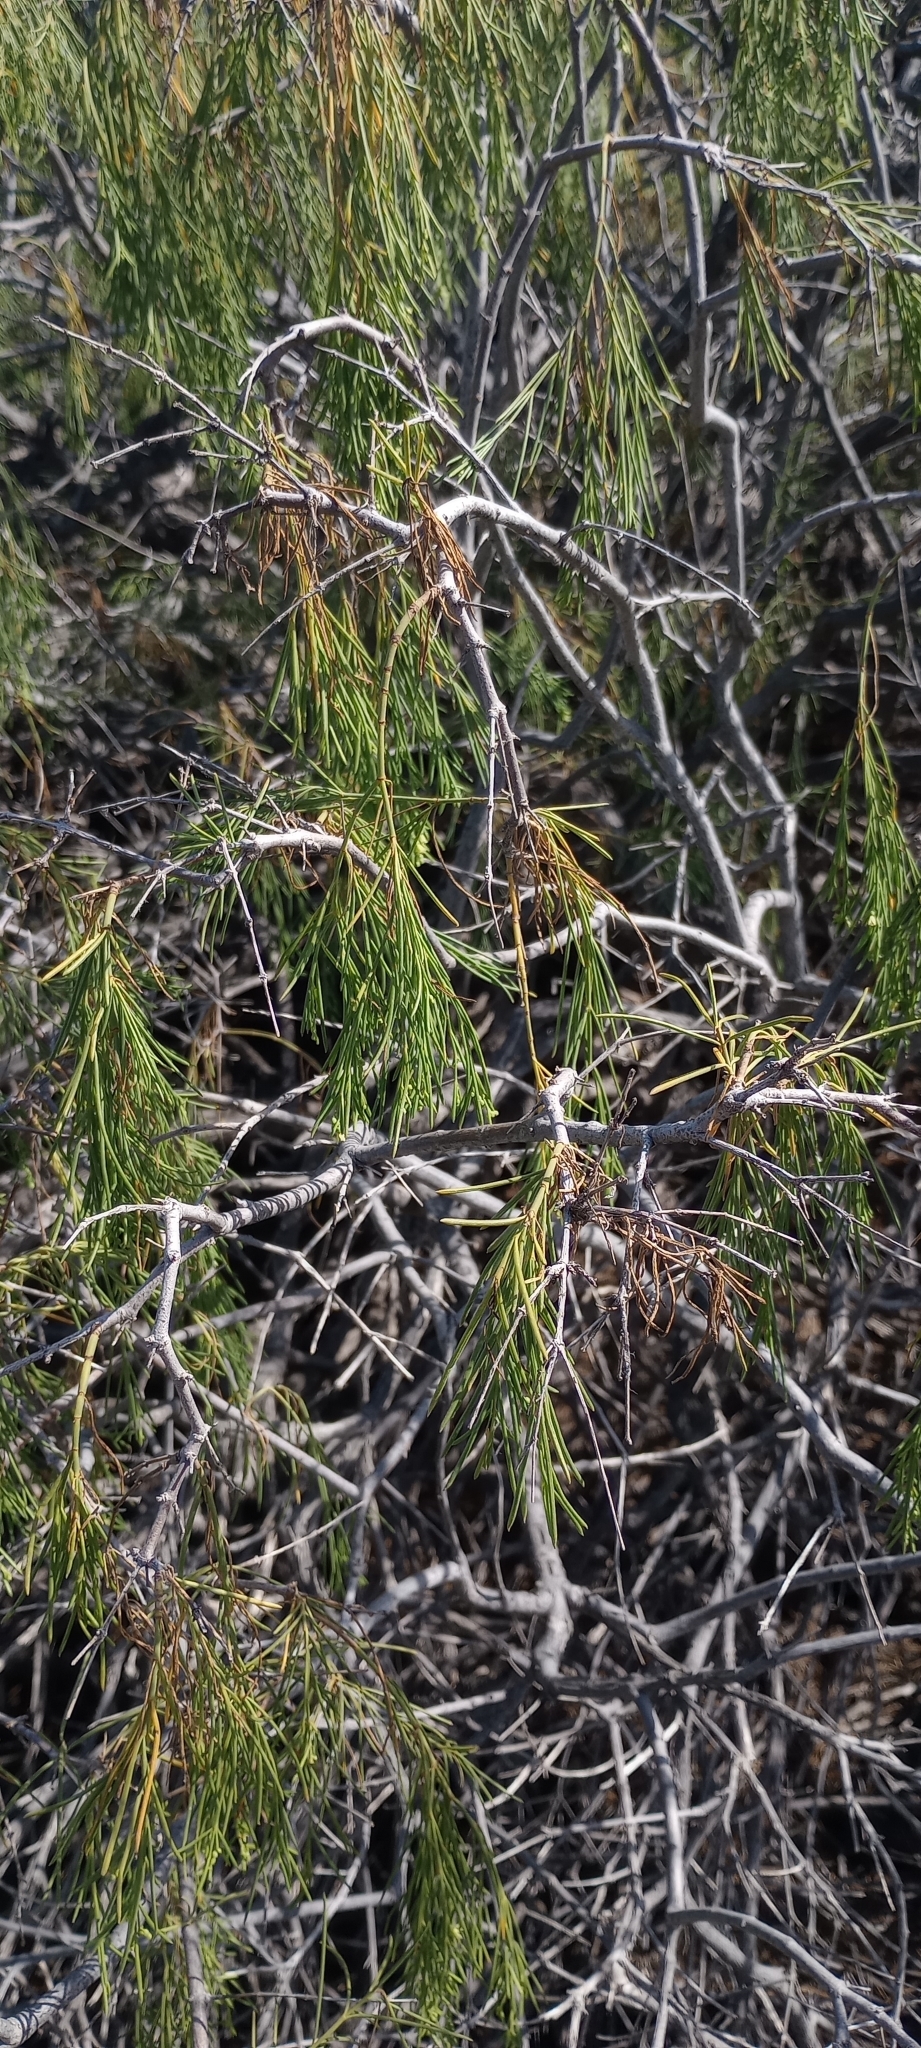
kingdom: Plantae
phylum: Tracheophyta
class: Magnoliopsida
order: Gentianales
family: Rubiaceae
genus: Plocama
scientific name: Plocama pendula
